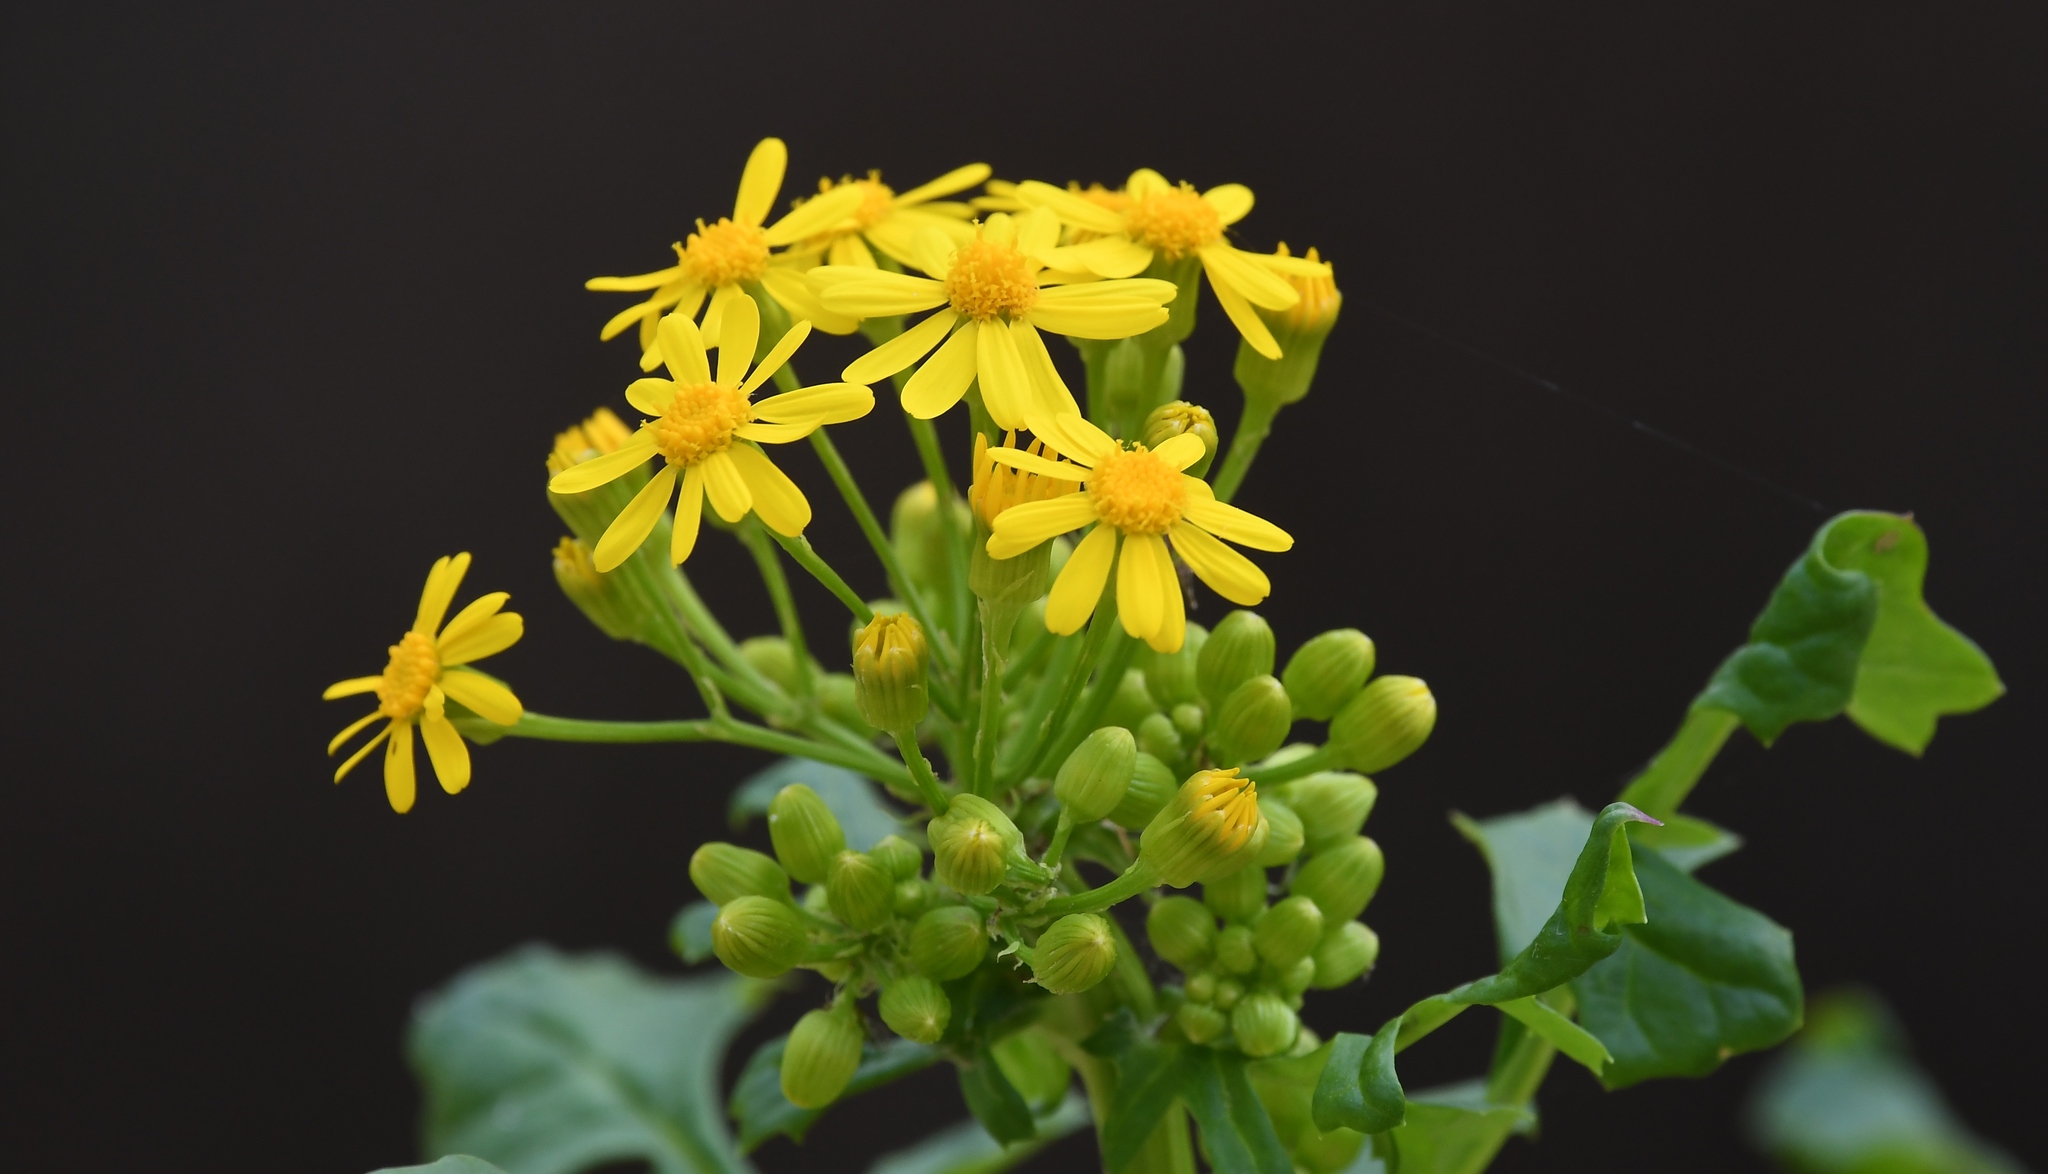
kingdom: Plantae
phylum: Tracheophyta
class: Magnoliopsida
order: Asterales
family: Asteraceae
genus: Packera
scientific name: Packera glabella
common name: Butterweed
